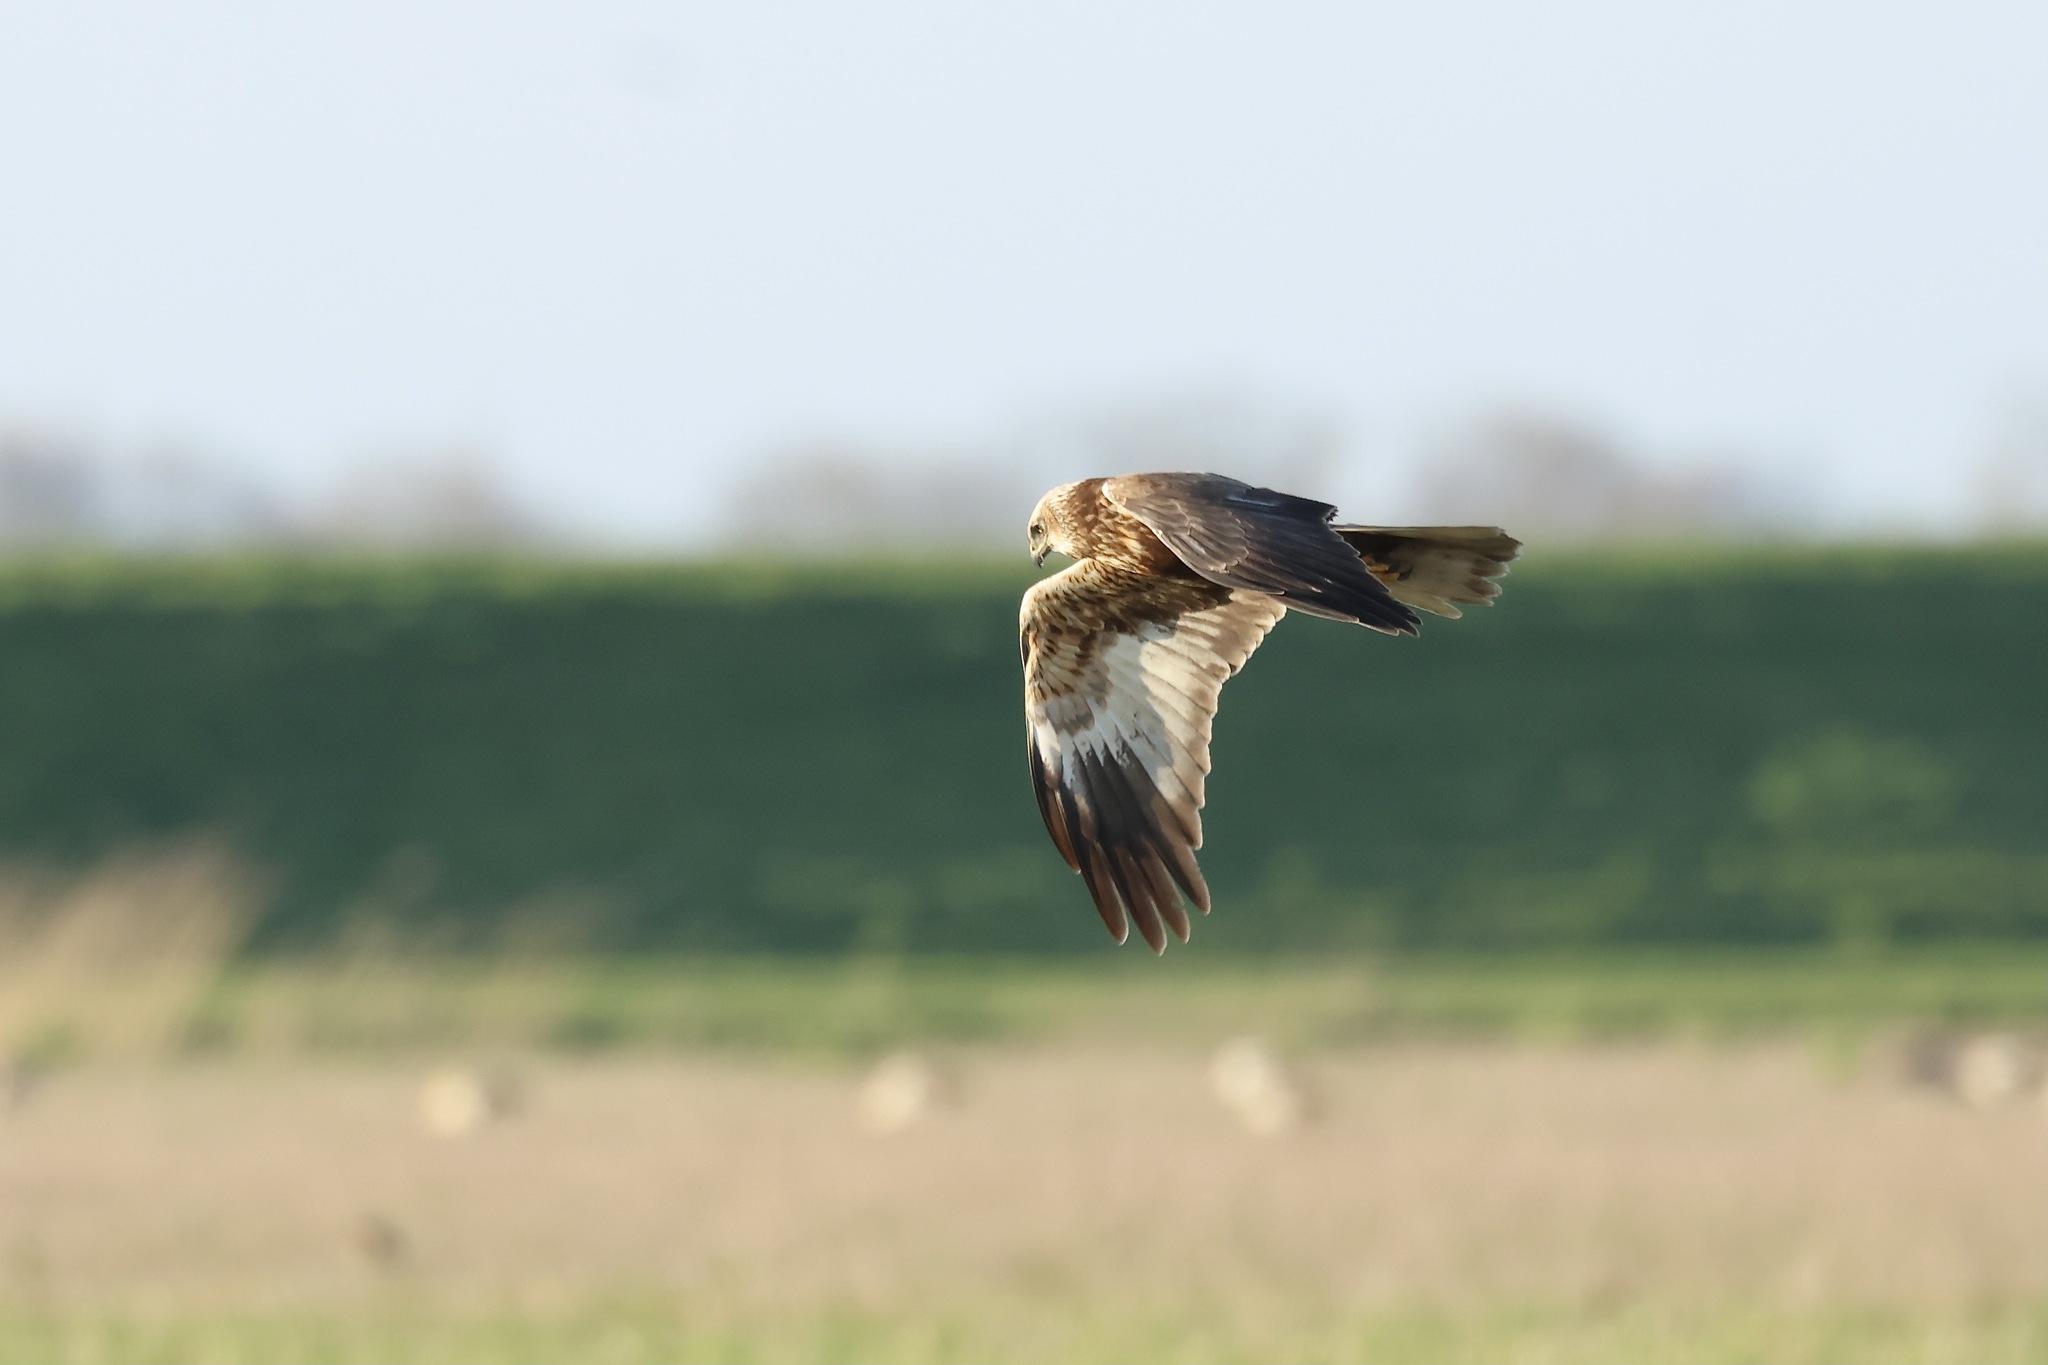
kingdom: Animalia
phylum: Chordata
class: Aves
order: Accipitriformes
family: Accipitridae
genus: Circus
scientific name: Circus aeruginosus
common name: Western marsh harrier
